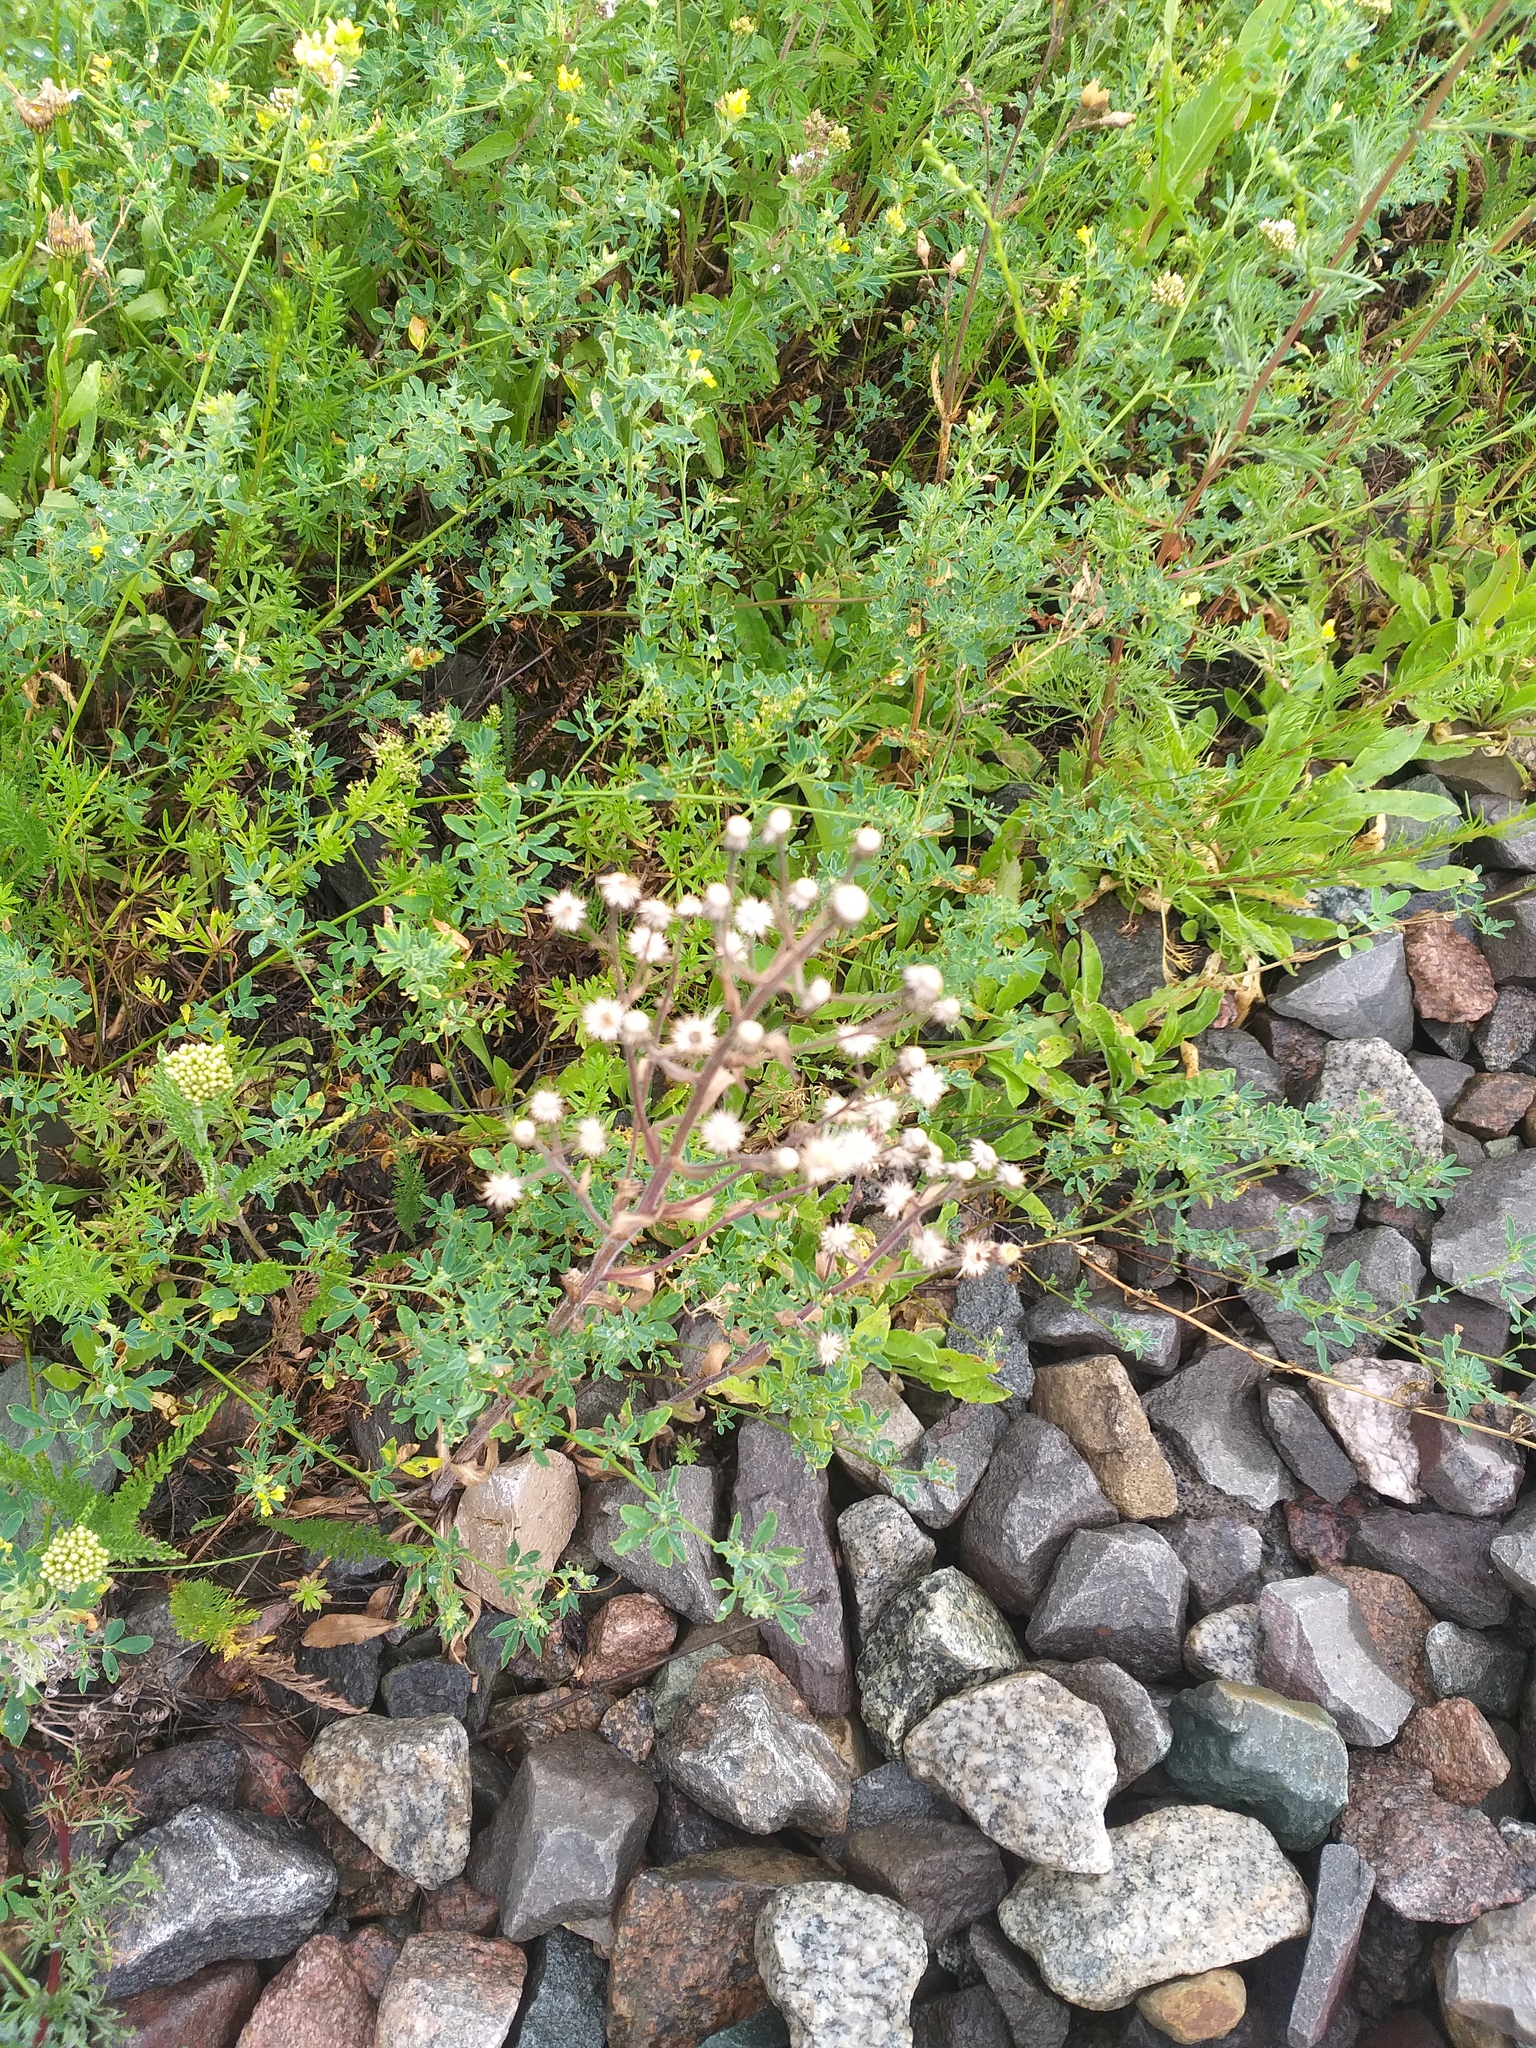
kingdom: Plantae
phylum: Tracheophyta
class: Magnoliopsida
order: Asterales
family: Asteraceae
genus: Erigeron
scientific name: Erigeron acris
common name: Blue fleabane
